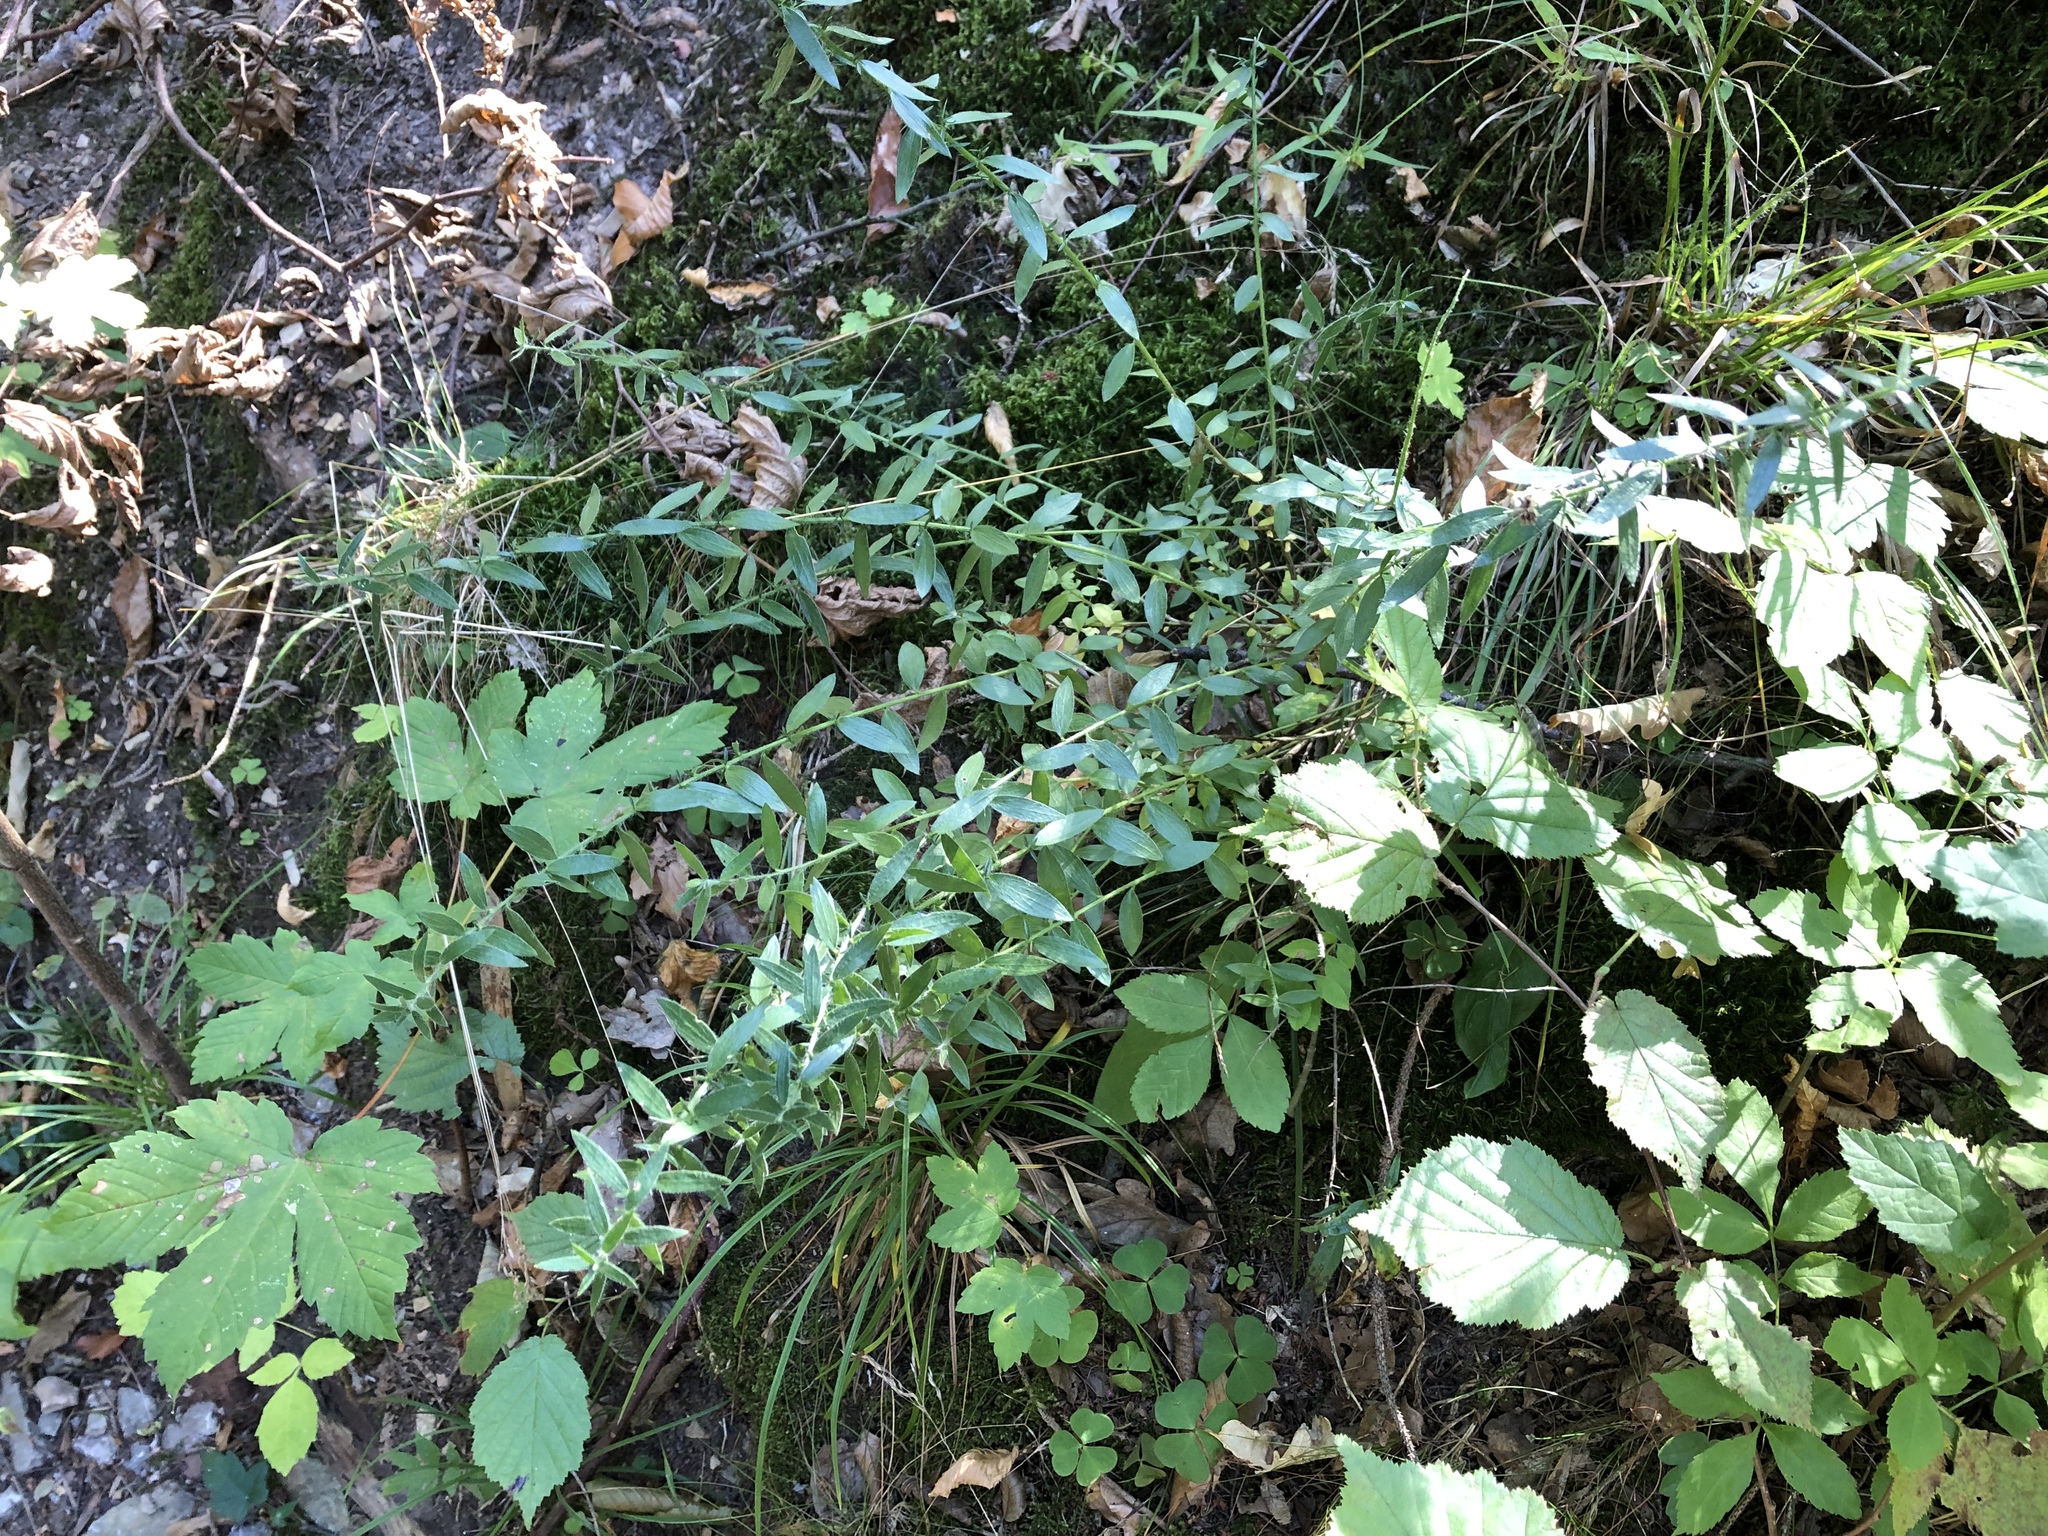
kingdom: Plantae
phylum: Tracheophyta
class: Magnoliopsida
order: Fabales
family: Fabaceae
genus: Genista
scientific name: Genista germanica
